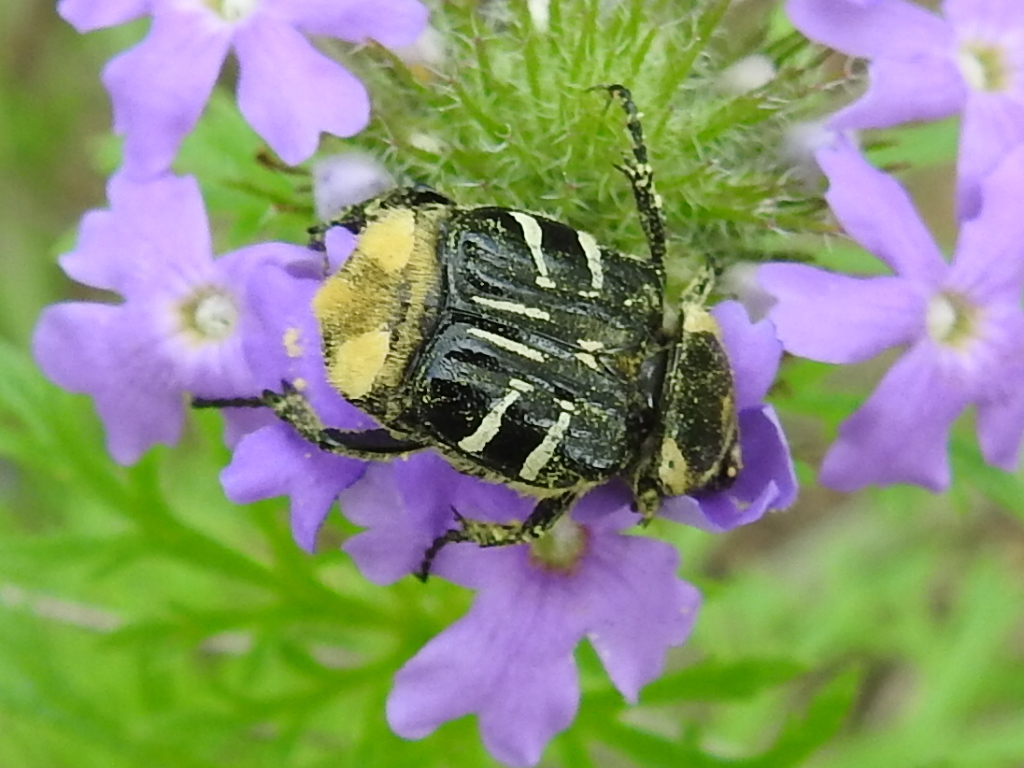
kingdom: Animalia
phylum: Arthropoda
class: Insecta
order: Coleoptera
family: Scarabaeidae
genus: Trichiotinus
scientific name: Trichiotinus texanus
